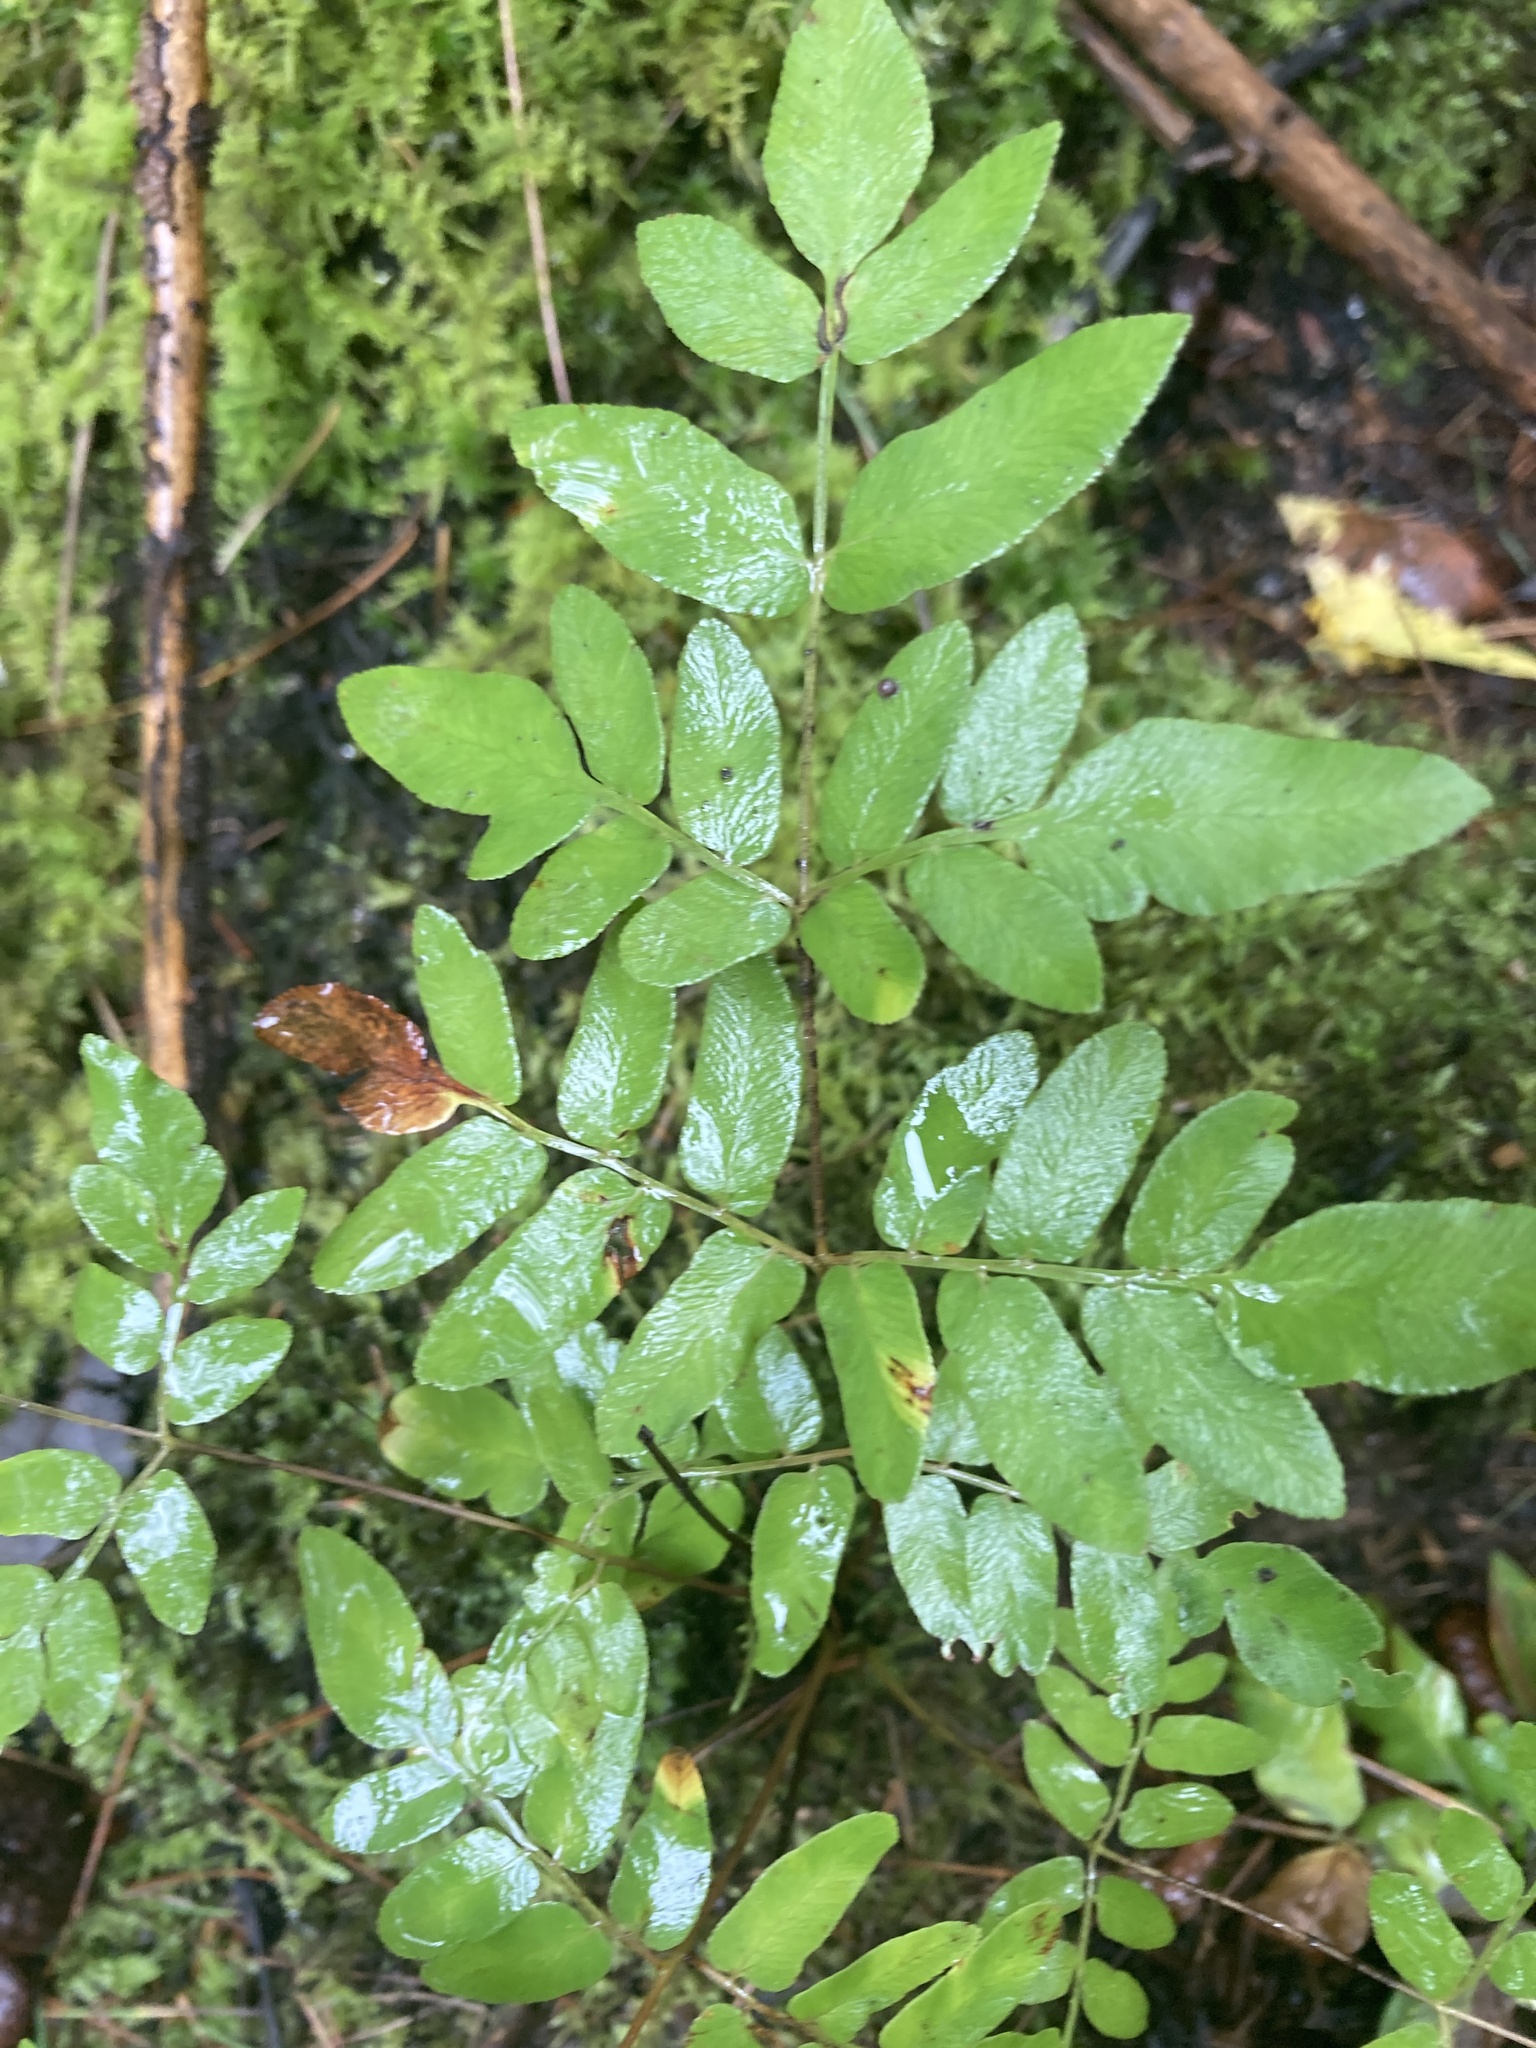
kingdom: Plantae
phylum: Tracheophyta
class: Polypodiopsida
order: Osmundales
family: Osmundaceae
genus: Osmunda
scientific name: Osmunda spectabilis
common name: American royal fern
